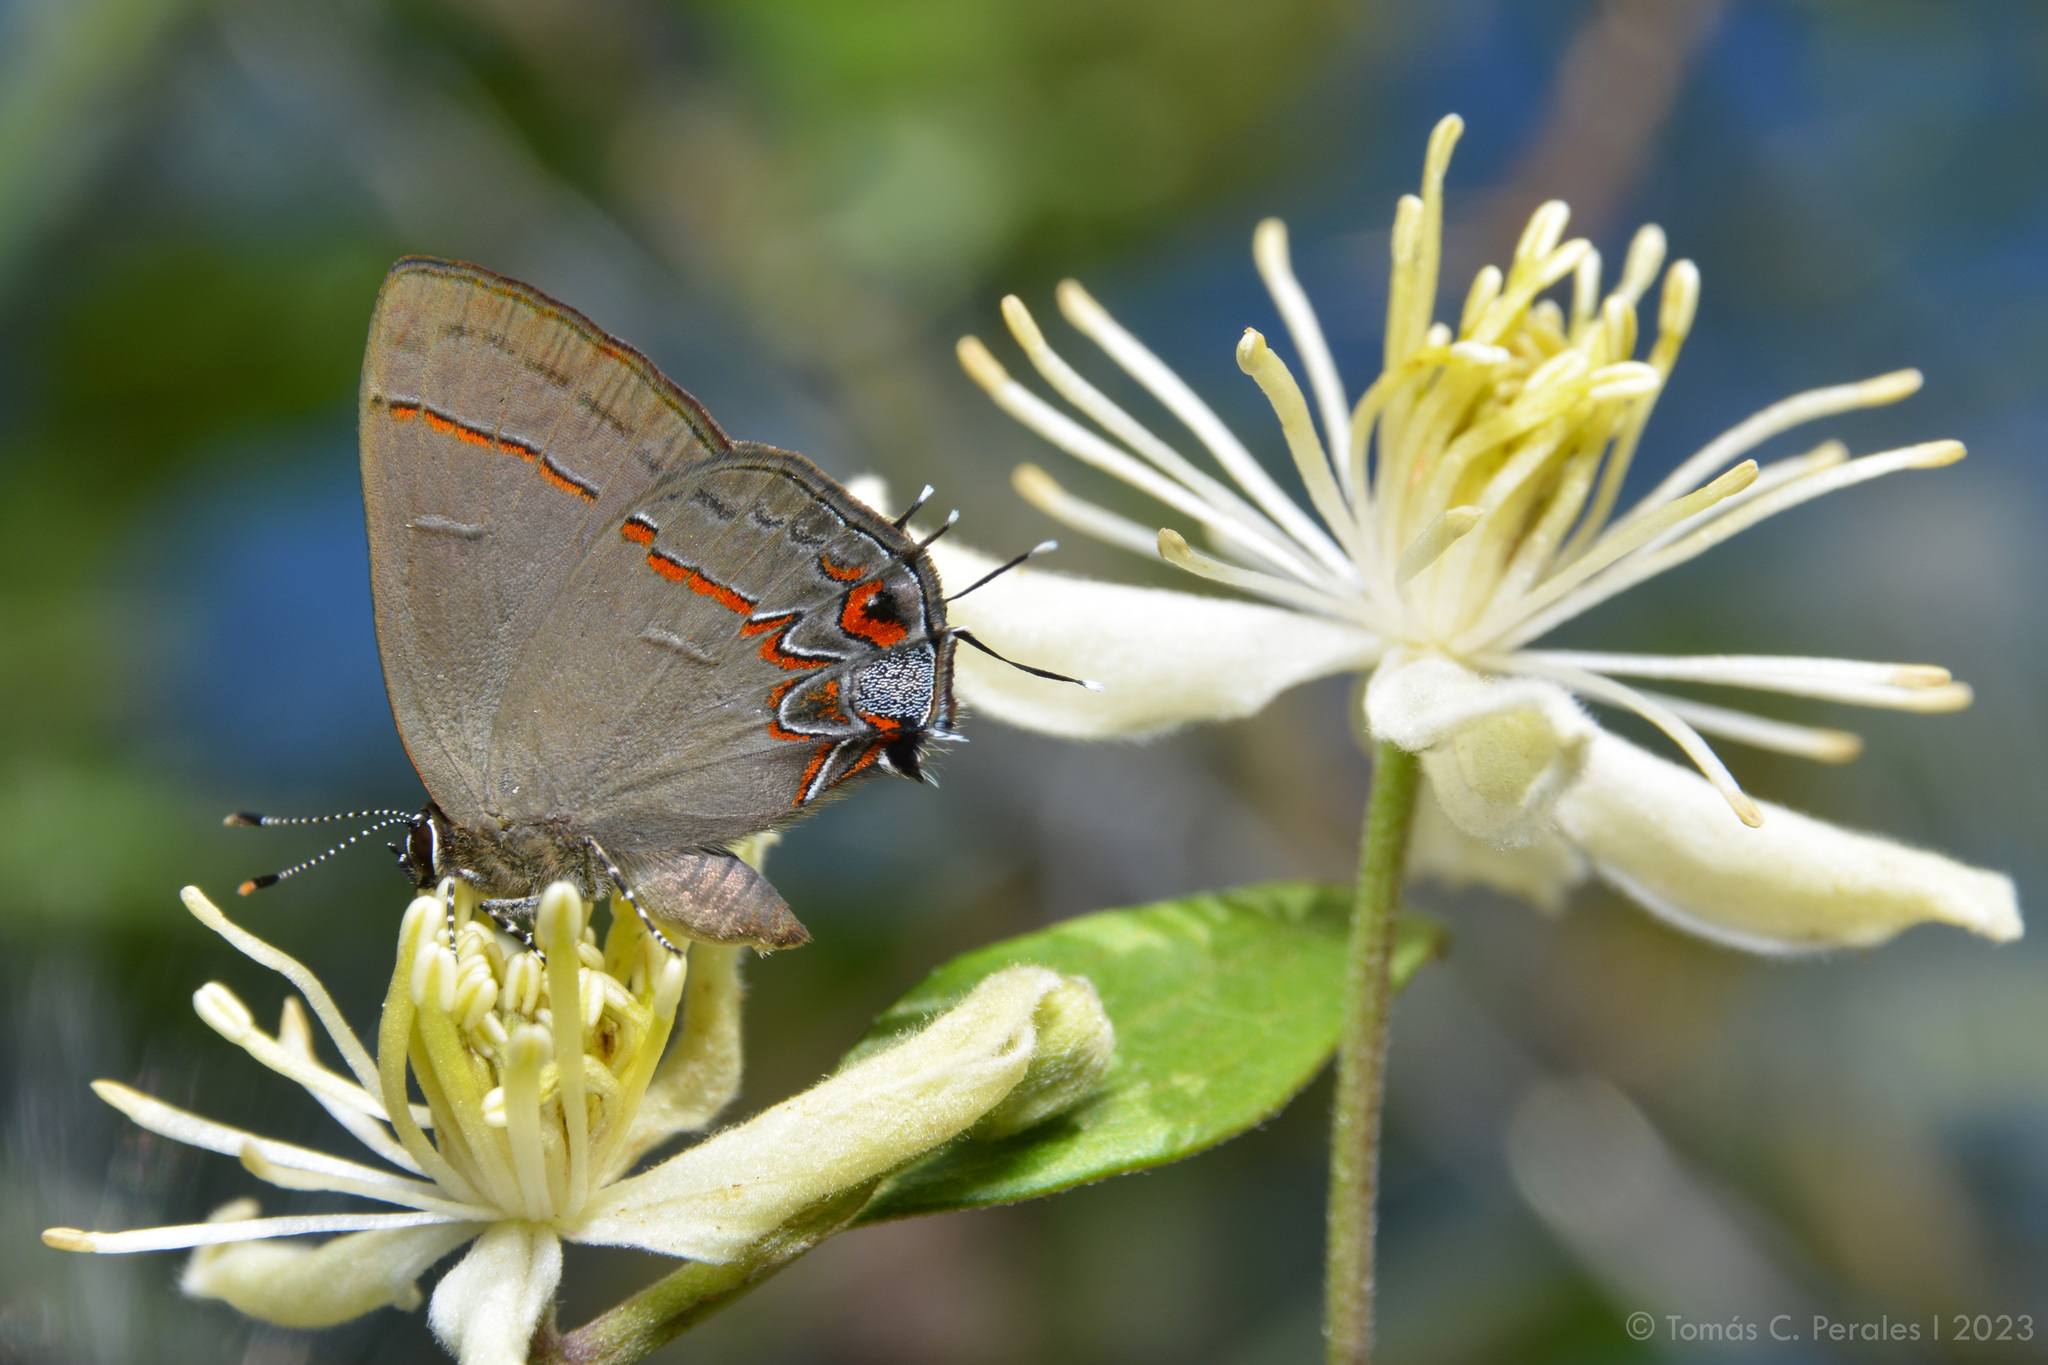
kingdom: Animalia
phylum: Arthropoda
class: Insecta
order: Lepidoptera
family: Lycaenidae
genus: Calycopis
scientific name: Calycopis caulonia
